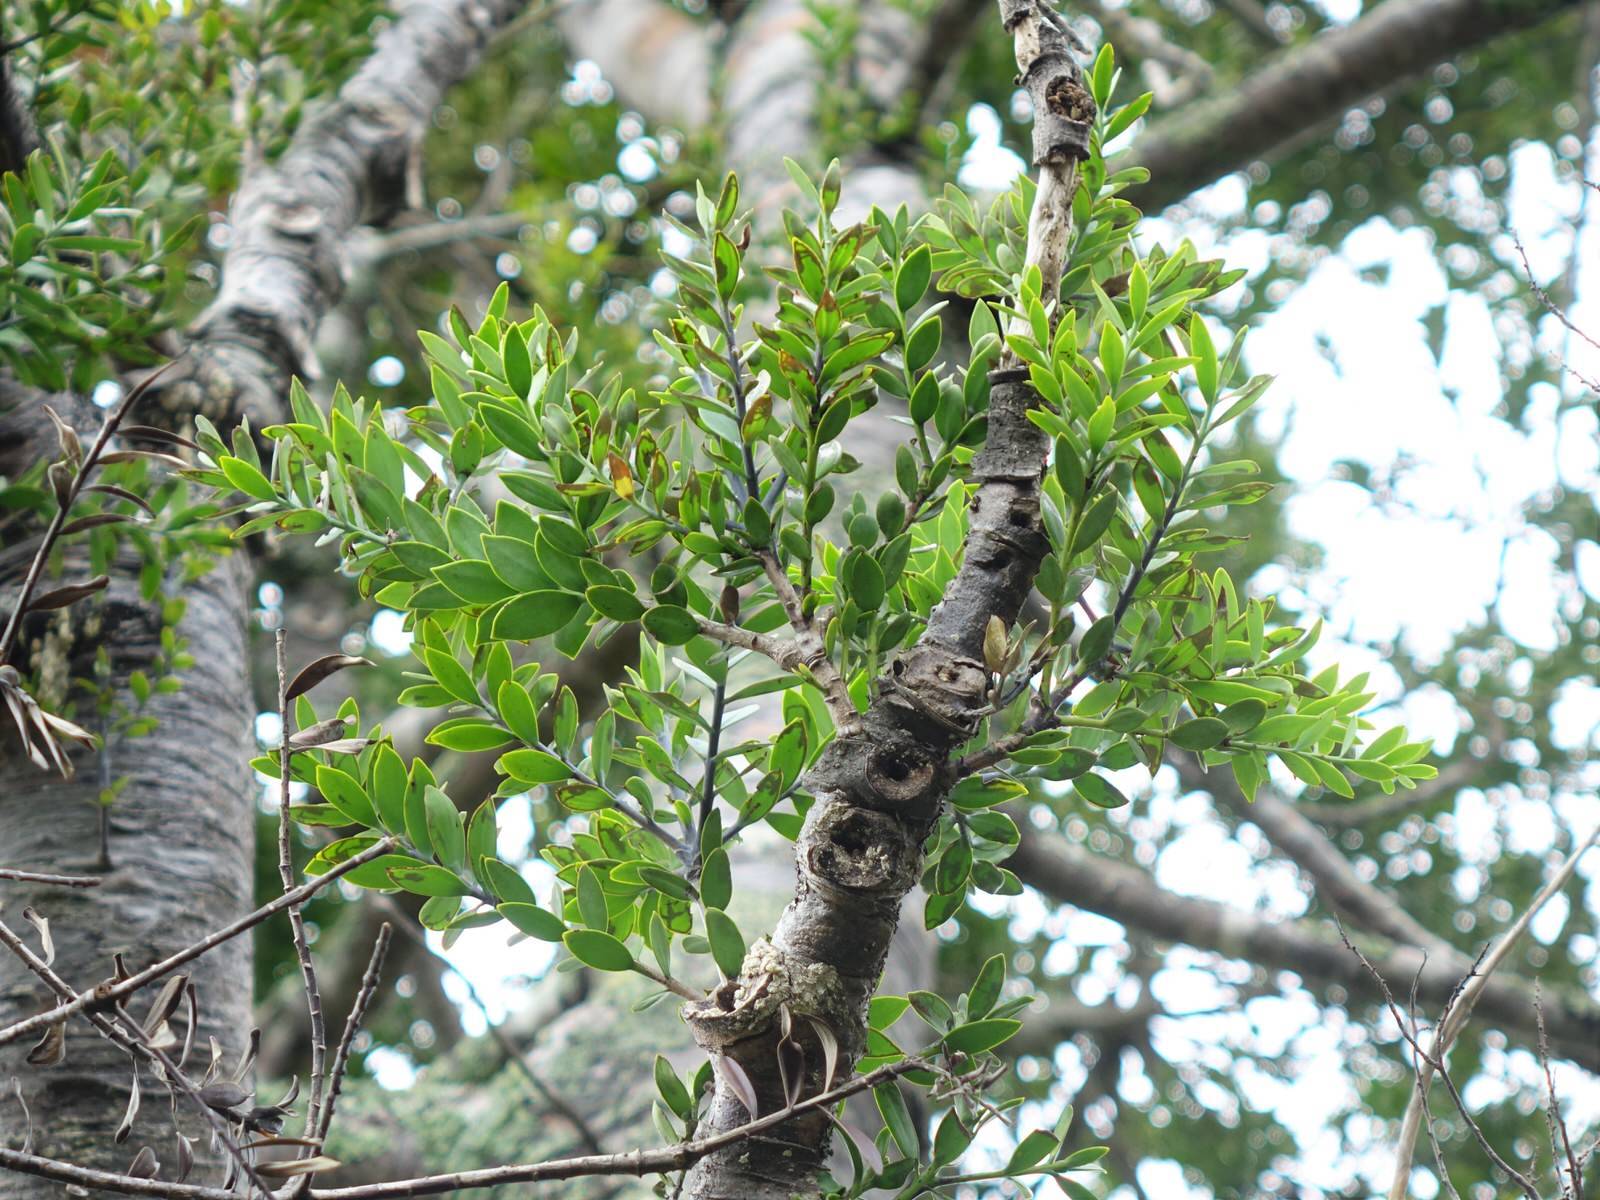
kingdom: Plantae
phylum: Tracheophyta
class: Pinopsida
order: Pinales
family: Araucariaceae
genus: Agathis
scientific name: Agathis australis
